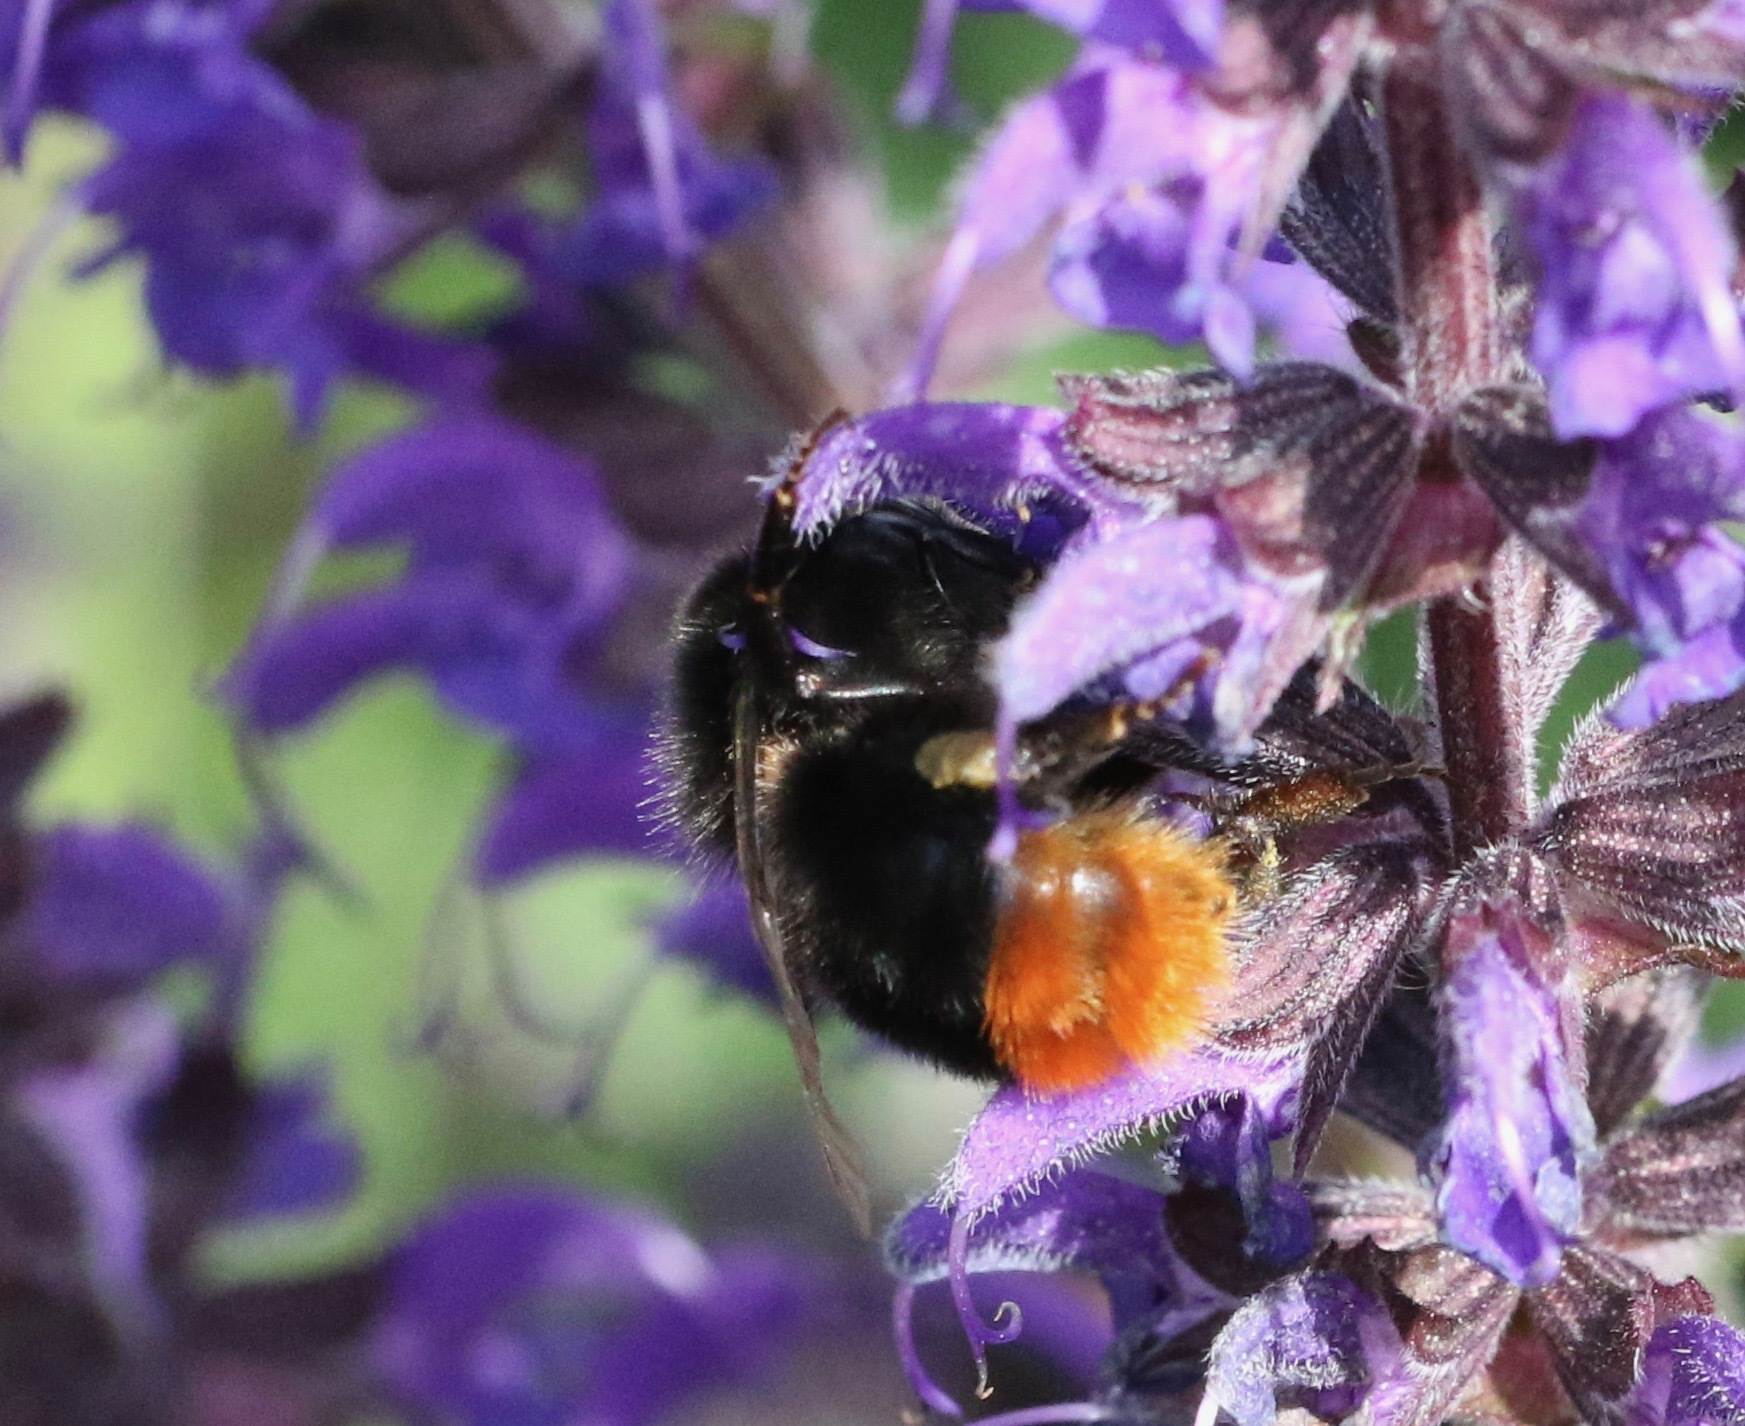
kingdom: Animalia
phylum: Arthropoda
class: Insecta
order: Hymenoptera
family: Apidae
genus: Bombus
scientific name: Bombus lapidarius
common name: Large red-tailed humble-bee
